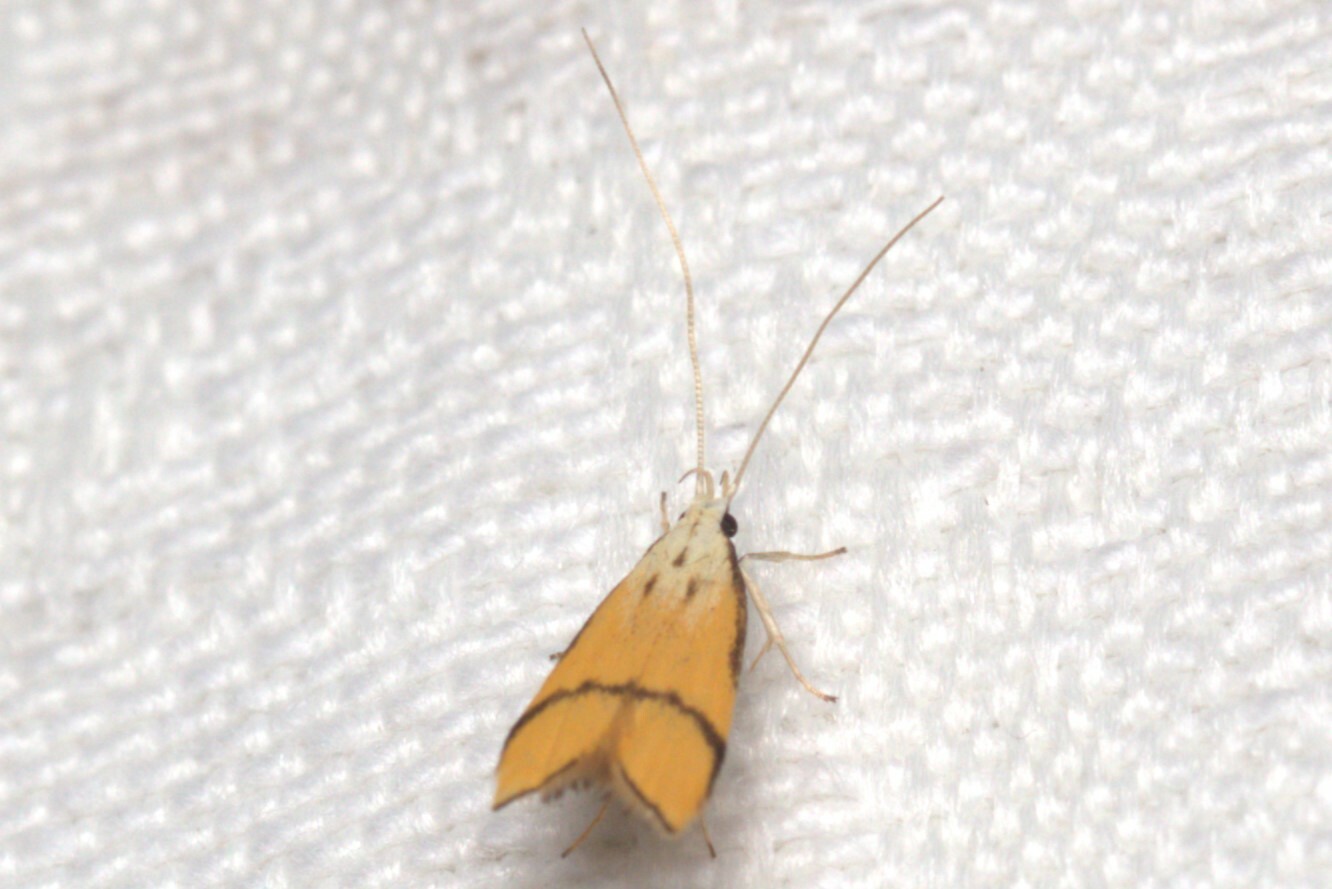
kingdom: Animalia
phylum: Arthropoda
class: Insecta
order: Lepidoptera
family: Lecithoceridae
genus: Crocanthes
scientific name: Crocanthes perigrapta
